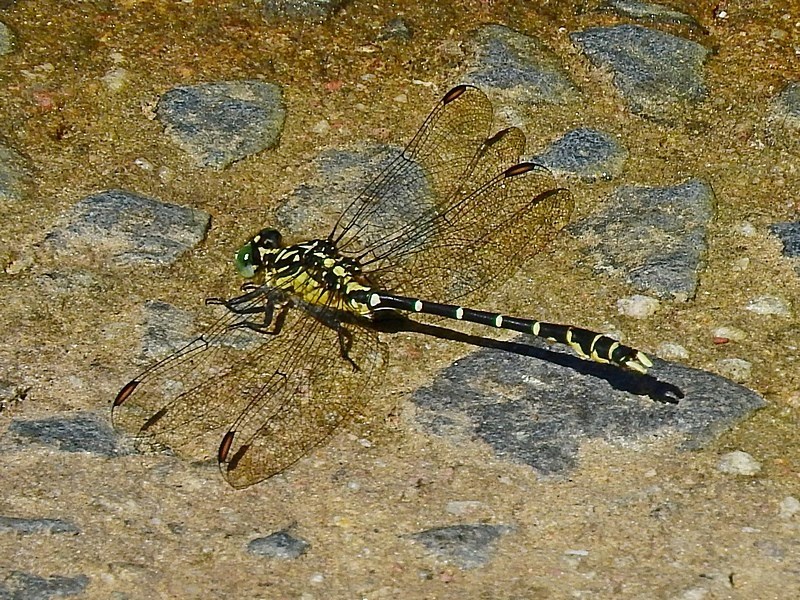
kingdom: Animalia
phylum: Arthropoda
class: Insecta
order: Odonata
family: Gomphidae
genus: Hemigomphus
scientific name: Hemigomphus gouldii
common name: Southern vicetail
